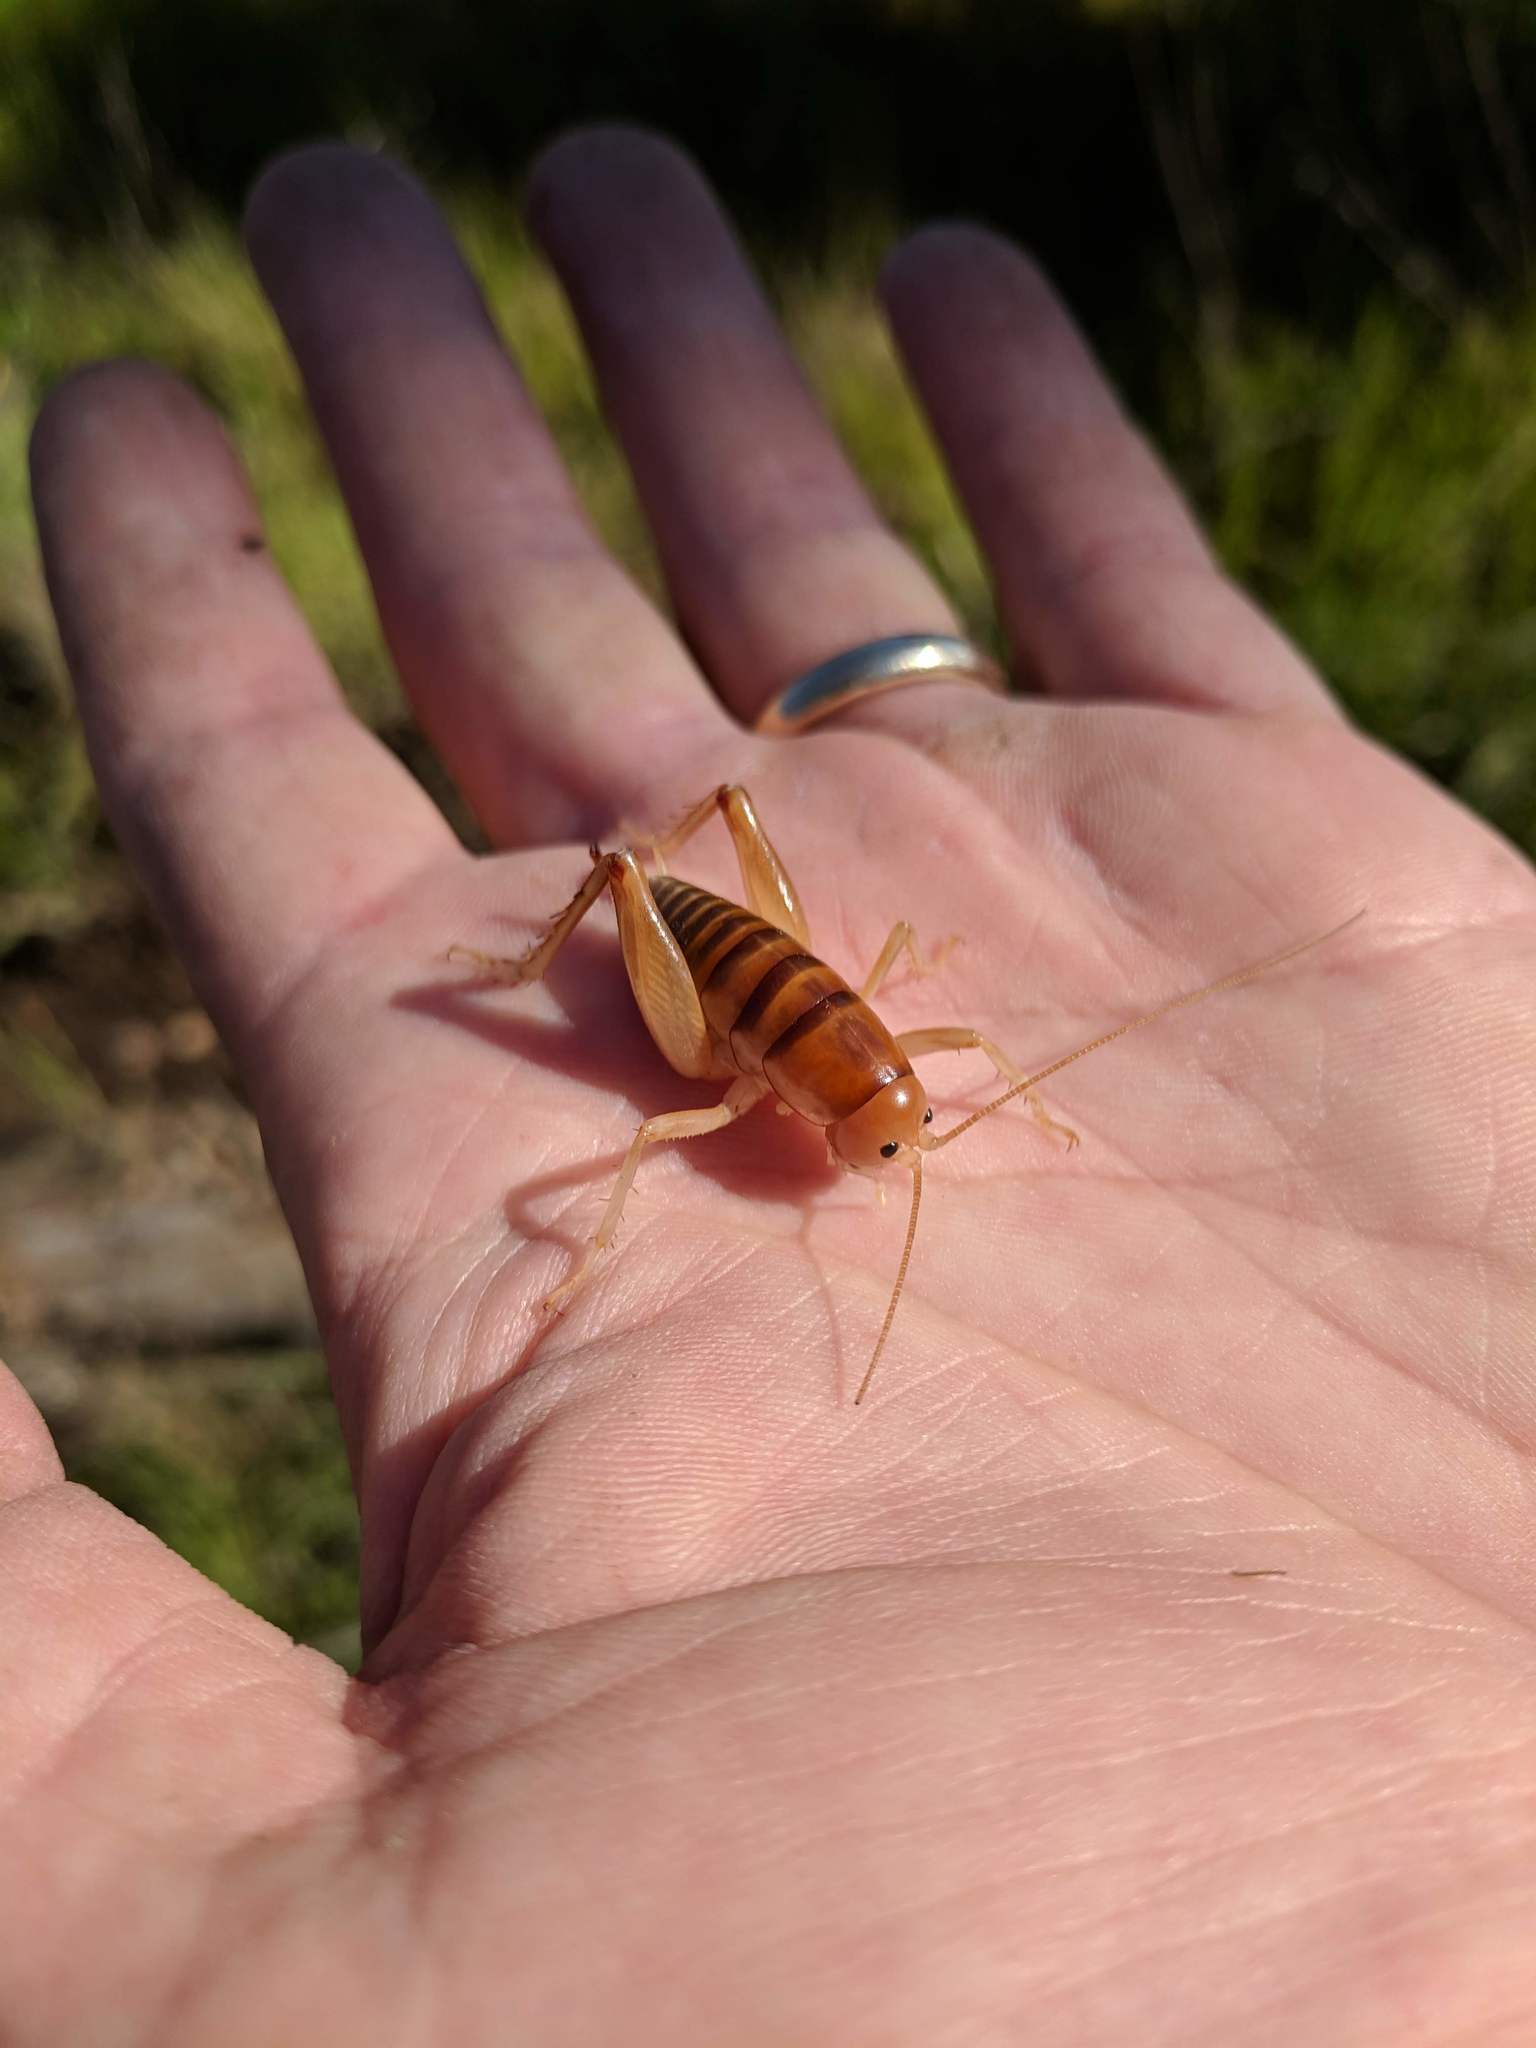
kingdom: Animalia
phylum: Arthropoda
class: Insecta
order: Orthoptera
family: Rhaphidophoridae
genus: Ceuthophilus
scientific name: Ceuthophilus californianus
